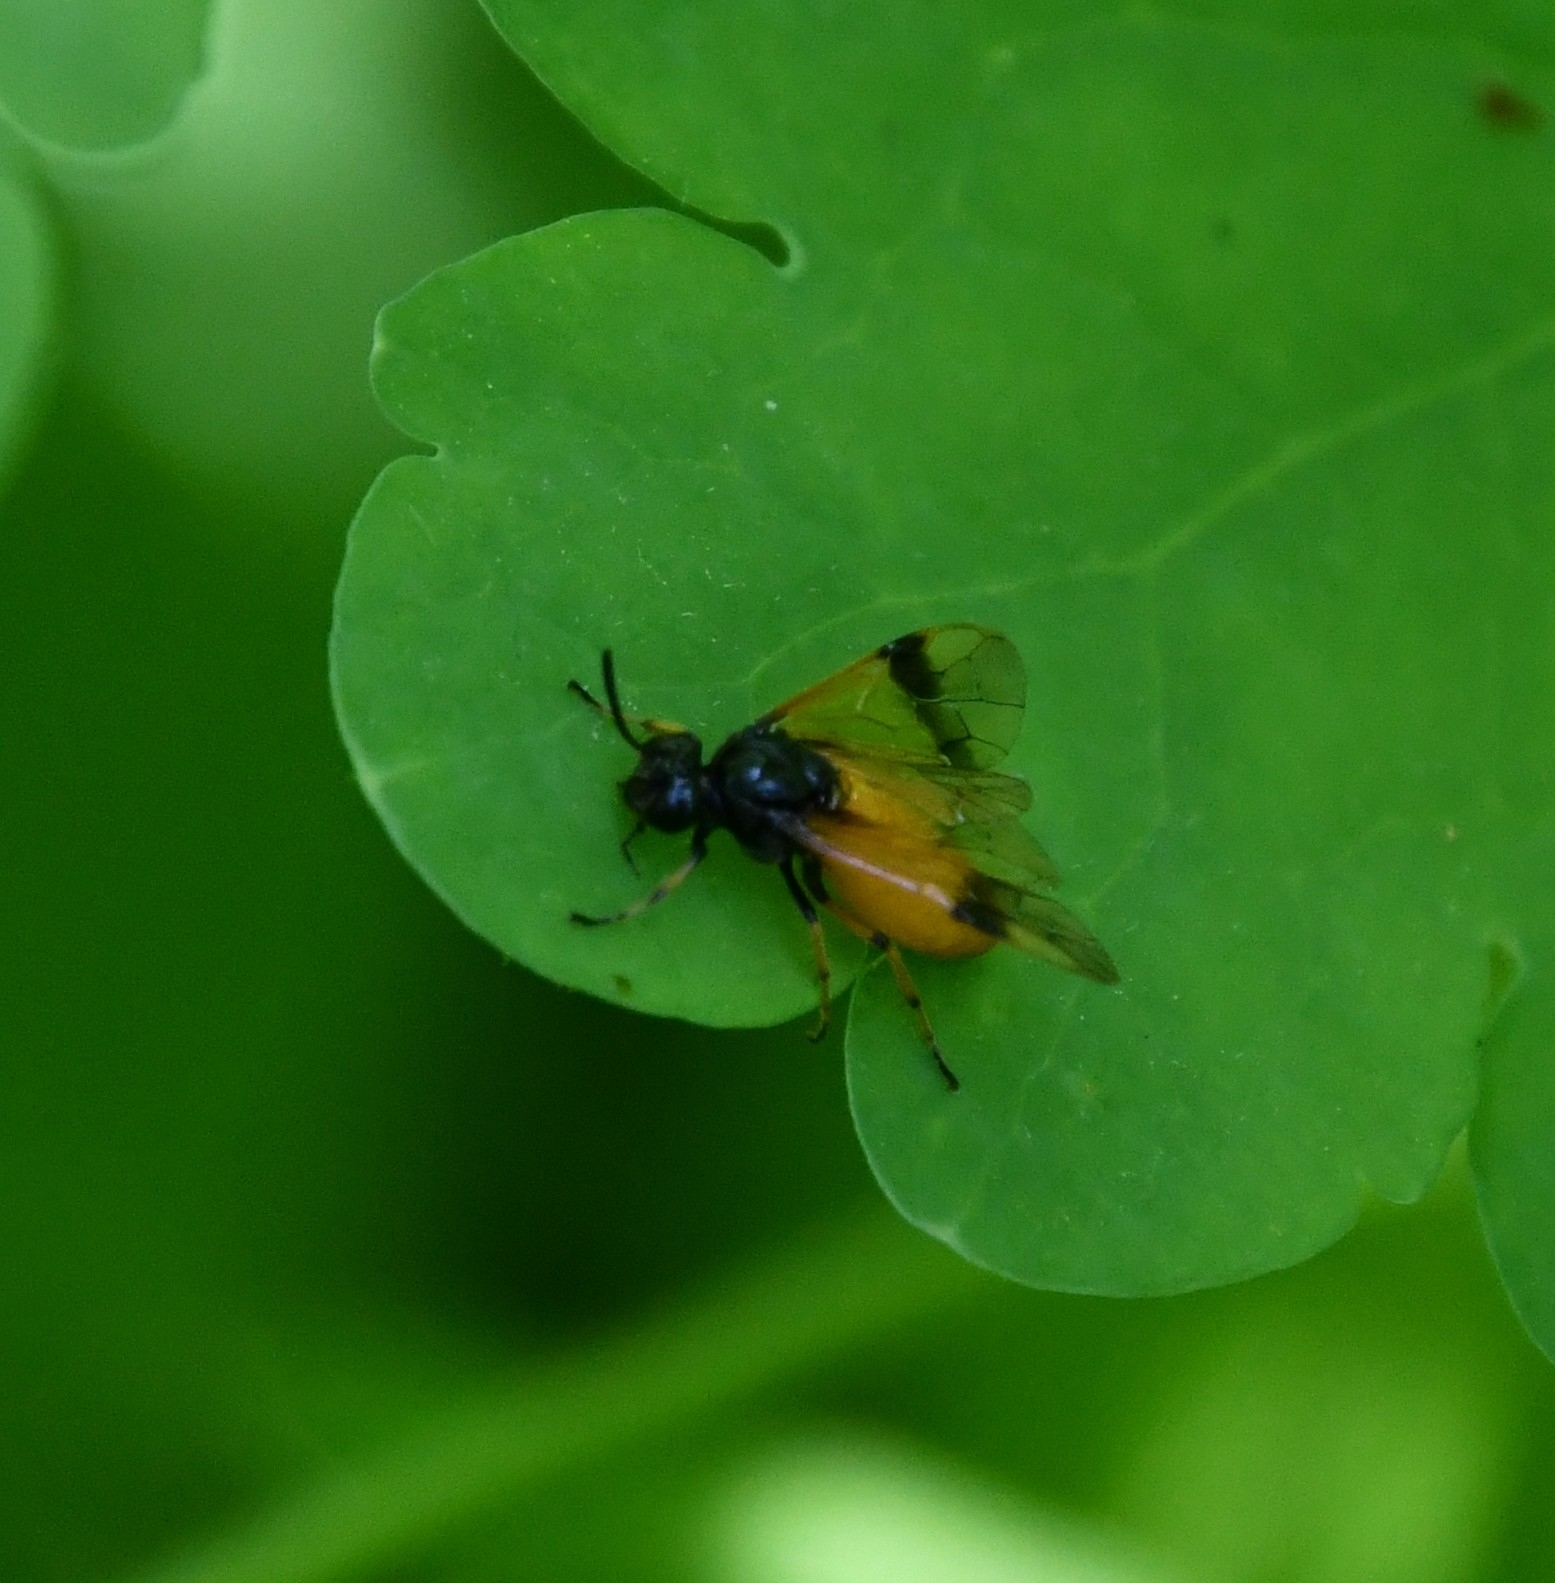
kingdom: Animalia
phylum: Arthropoda
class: Insecta
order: Hymenoptera
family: Argidae
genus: Arge
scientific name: Arge cyanocrocea
